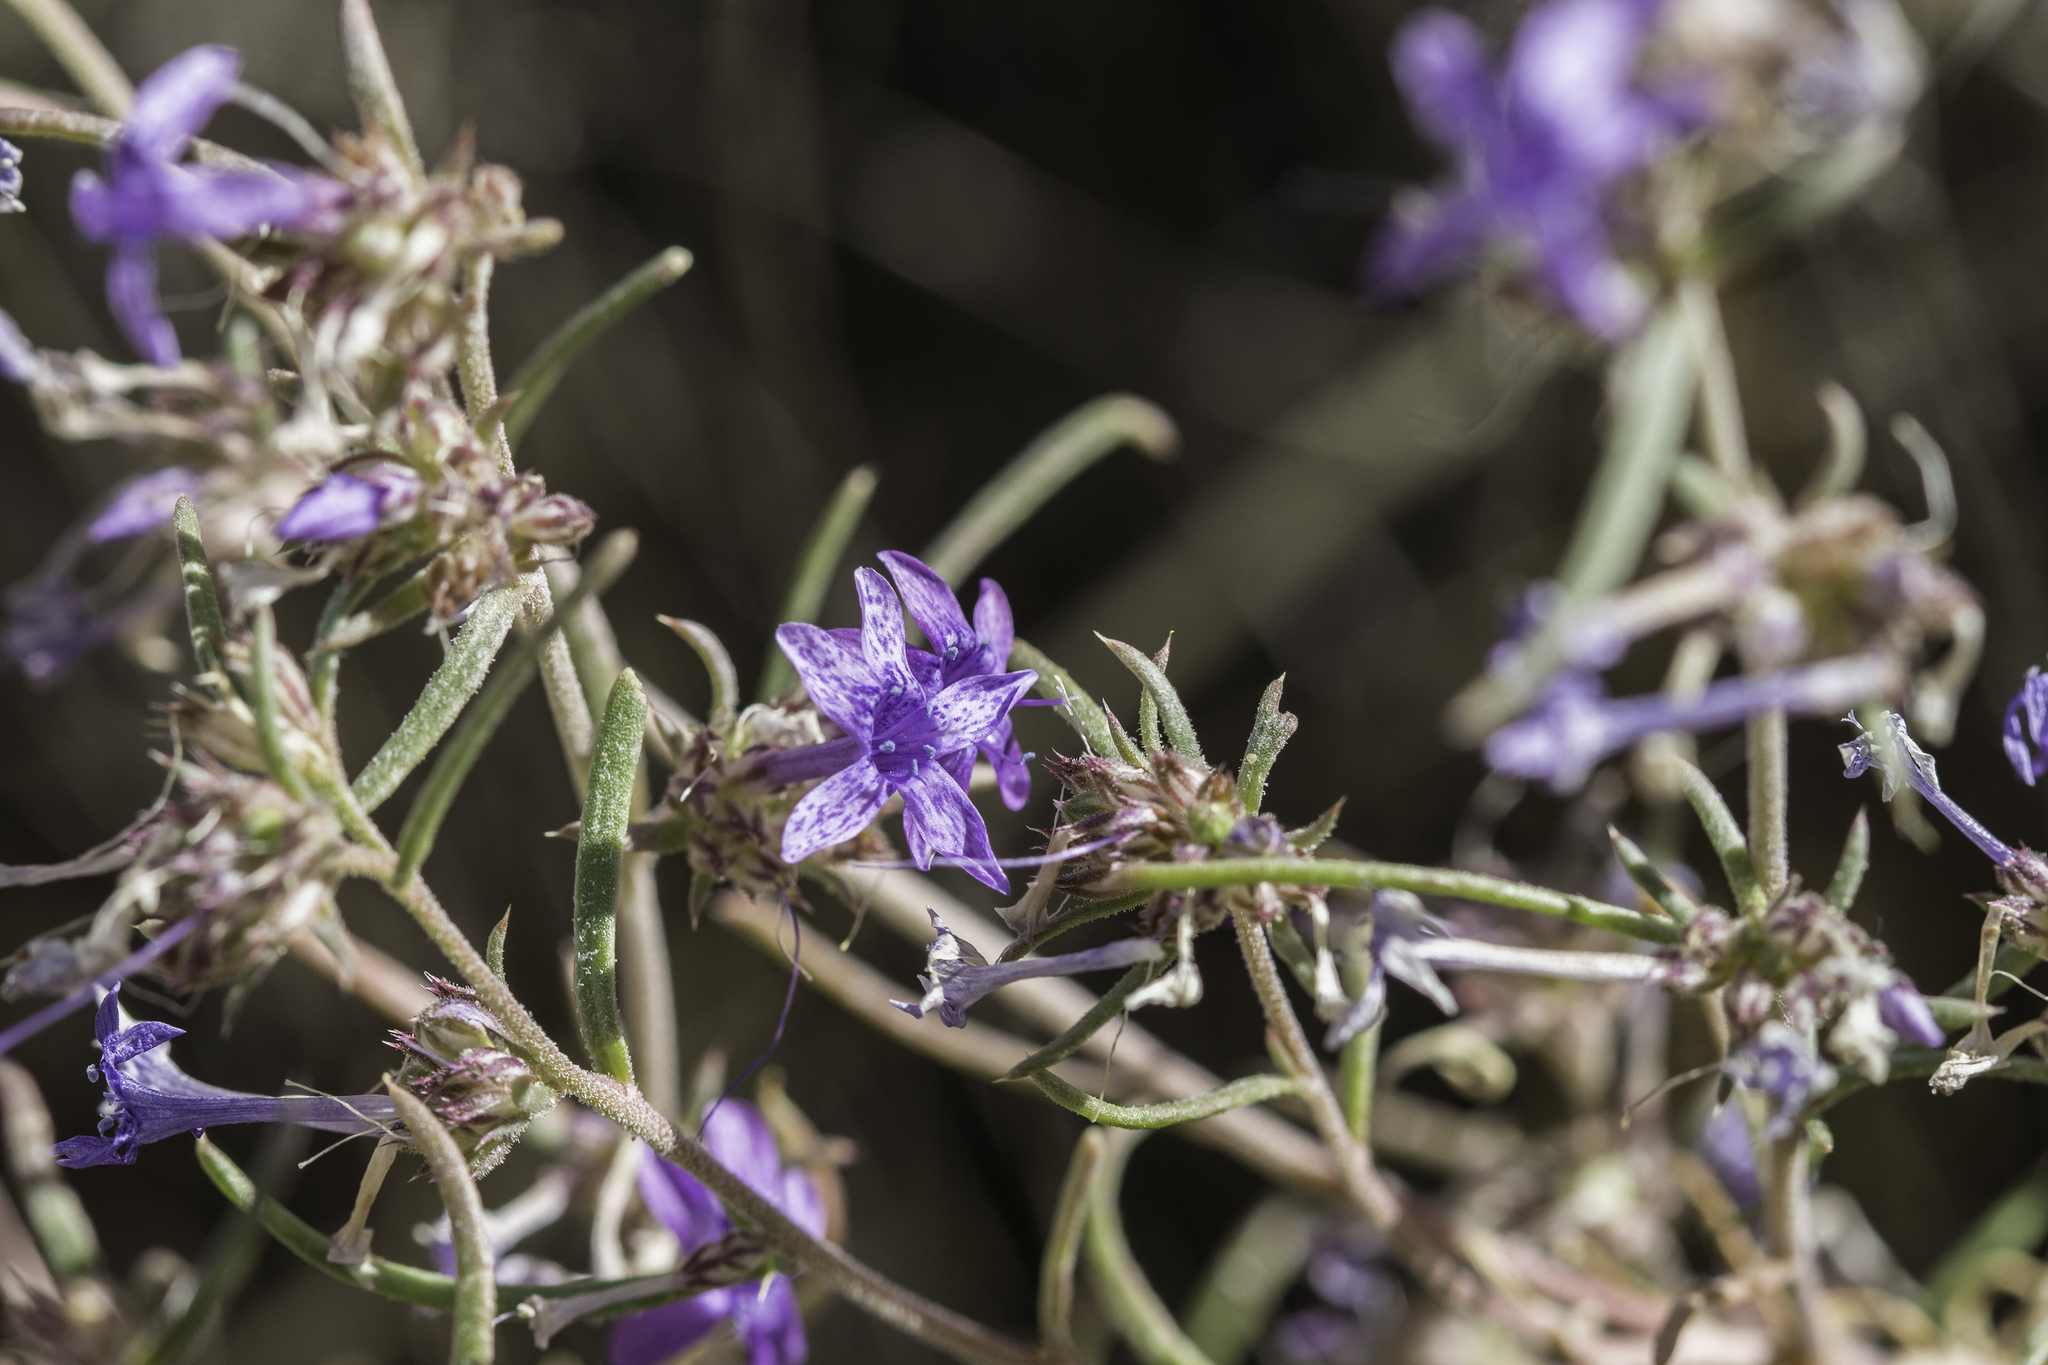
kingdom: Plantae
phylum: Tracheophyta
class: Magnoliopsida
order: Ericales
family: Polemoniaceae
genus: Ipomopsis
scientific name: Ipomopsis multiflora
